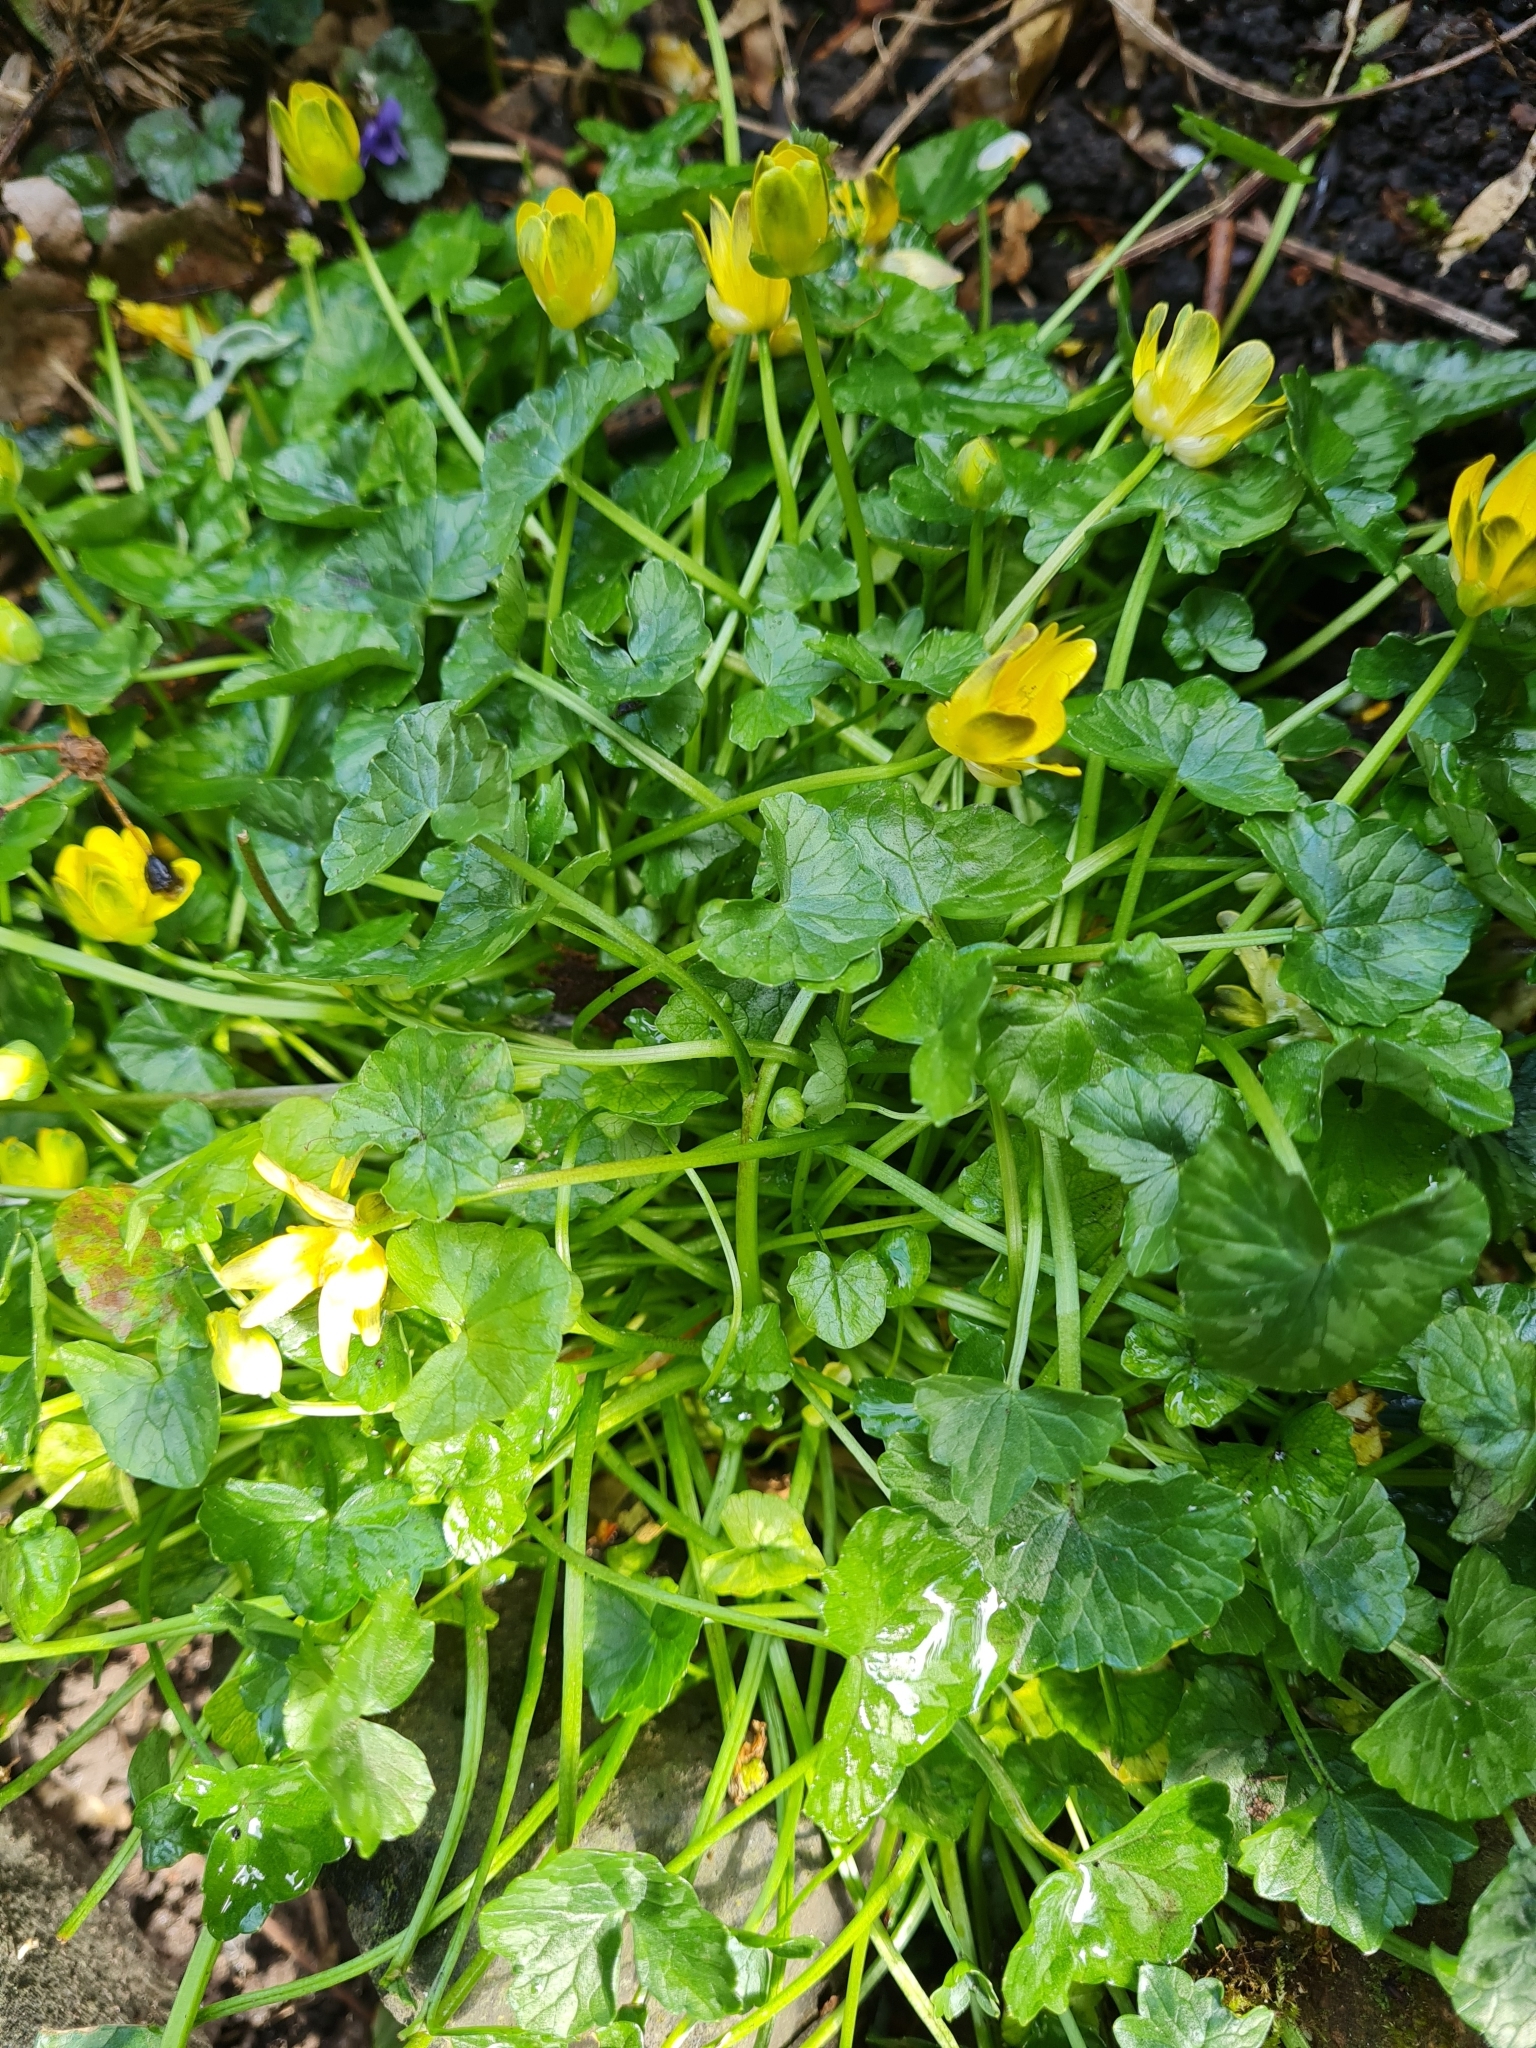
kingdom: Plantae
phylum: Tracheophyta
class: Magnoliopsida
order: Ranunculales
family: Ranunculaceae
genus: Ficaria
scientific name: Ficaria verna
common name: Lesser celandine
